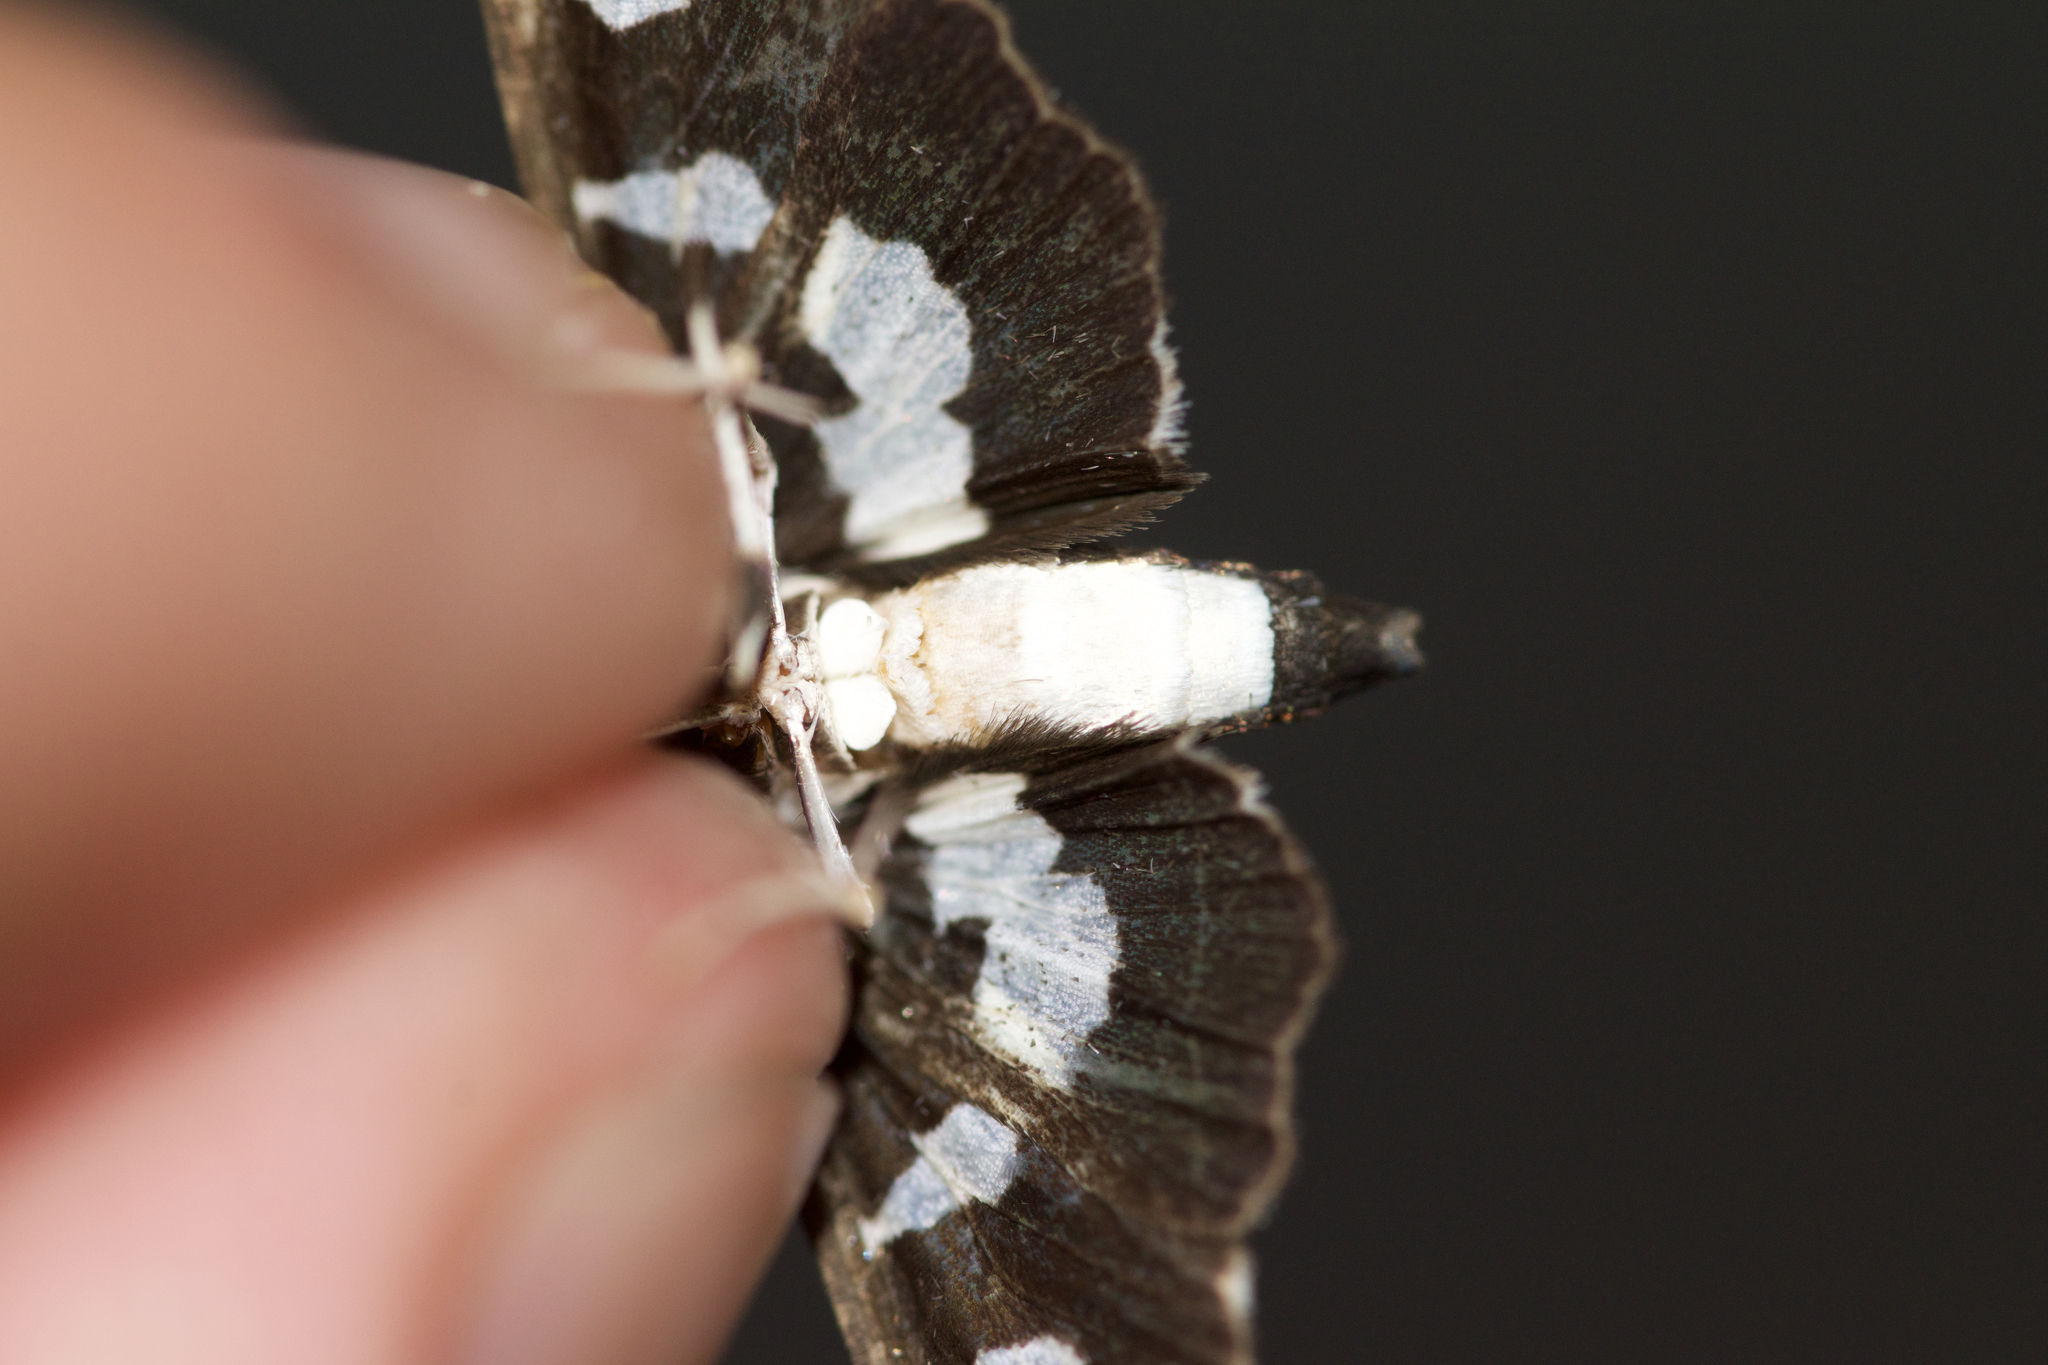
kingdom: Animalia
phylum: Arthropoda
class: Insecta
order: Lepidoptera
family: Crambidae
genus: Desmia
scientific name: Desmia funeralis
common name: Grape leaf folder moth
